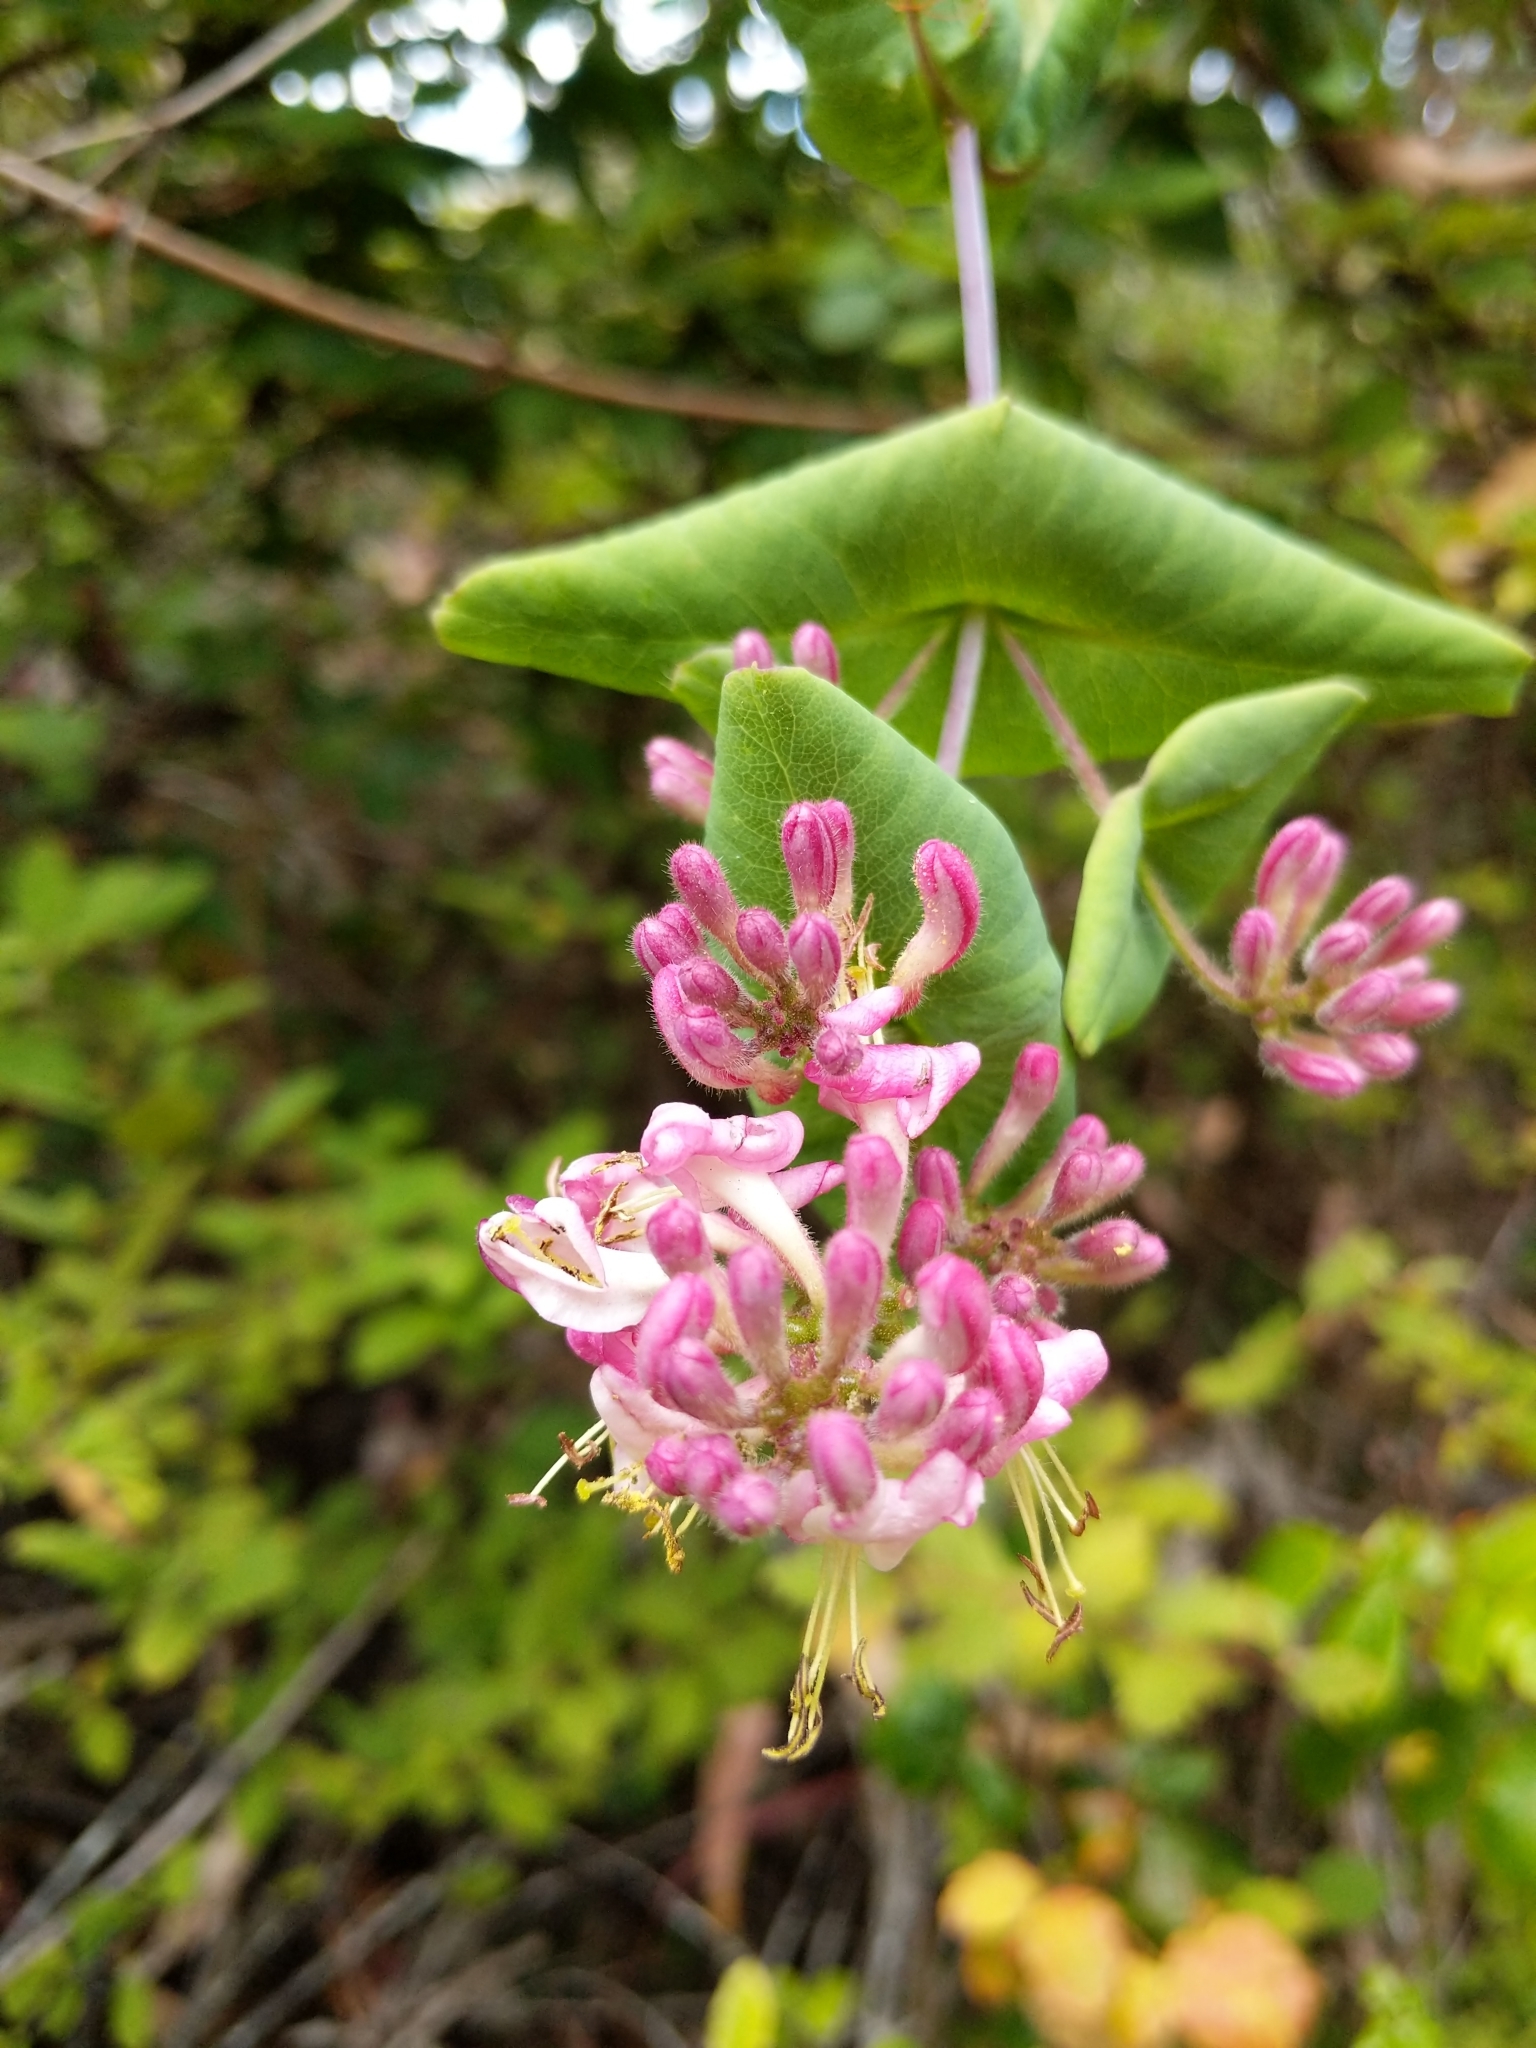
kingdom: Plantae
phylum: Tracheophyta
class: Magnoliopsida
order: Dipsacales
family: Caprifoliaceae
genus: Lonicera
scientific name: Lonicera hispidula
